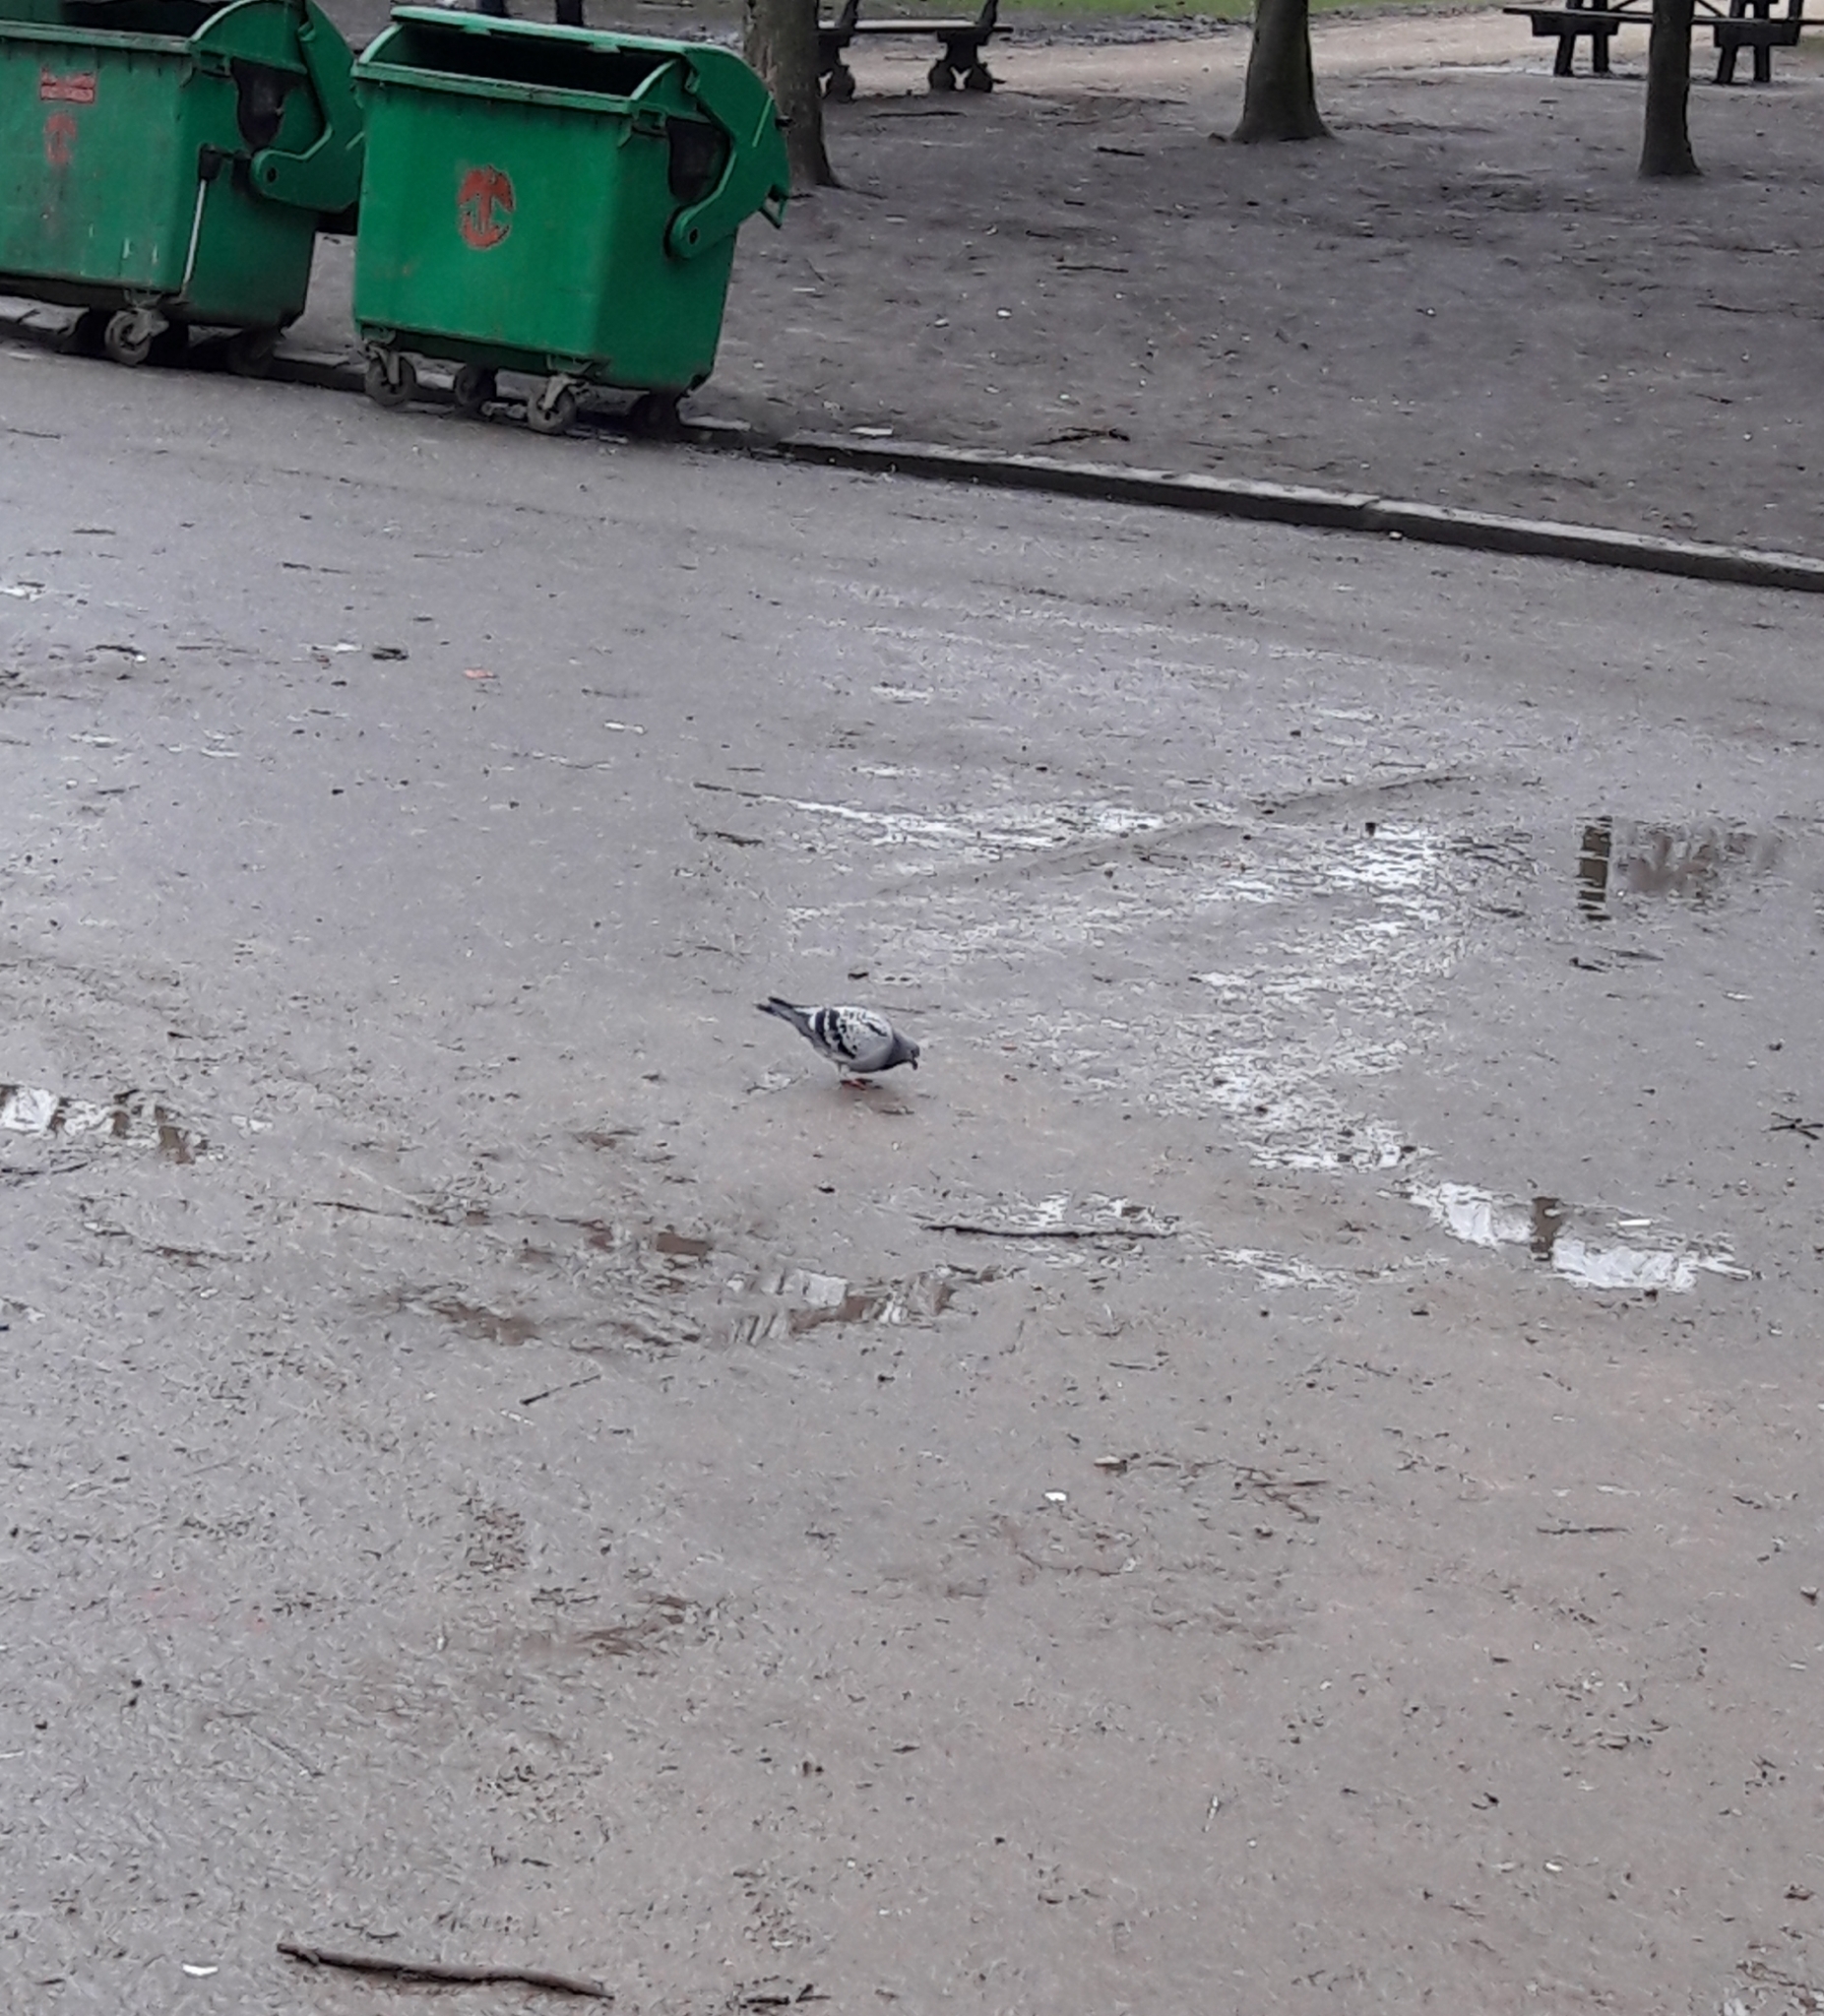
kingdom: Animalia
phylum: Chordata
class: Aves
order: Columbiformes
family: Columbidae
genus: Columba
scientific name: Columba livia
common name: Rock pigeon
